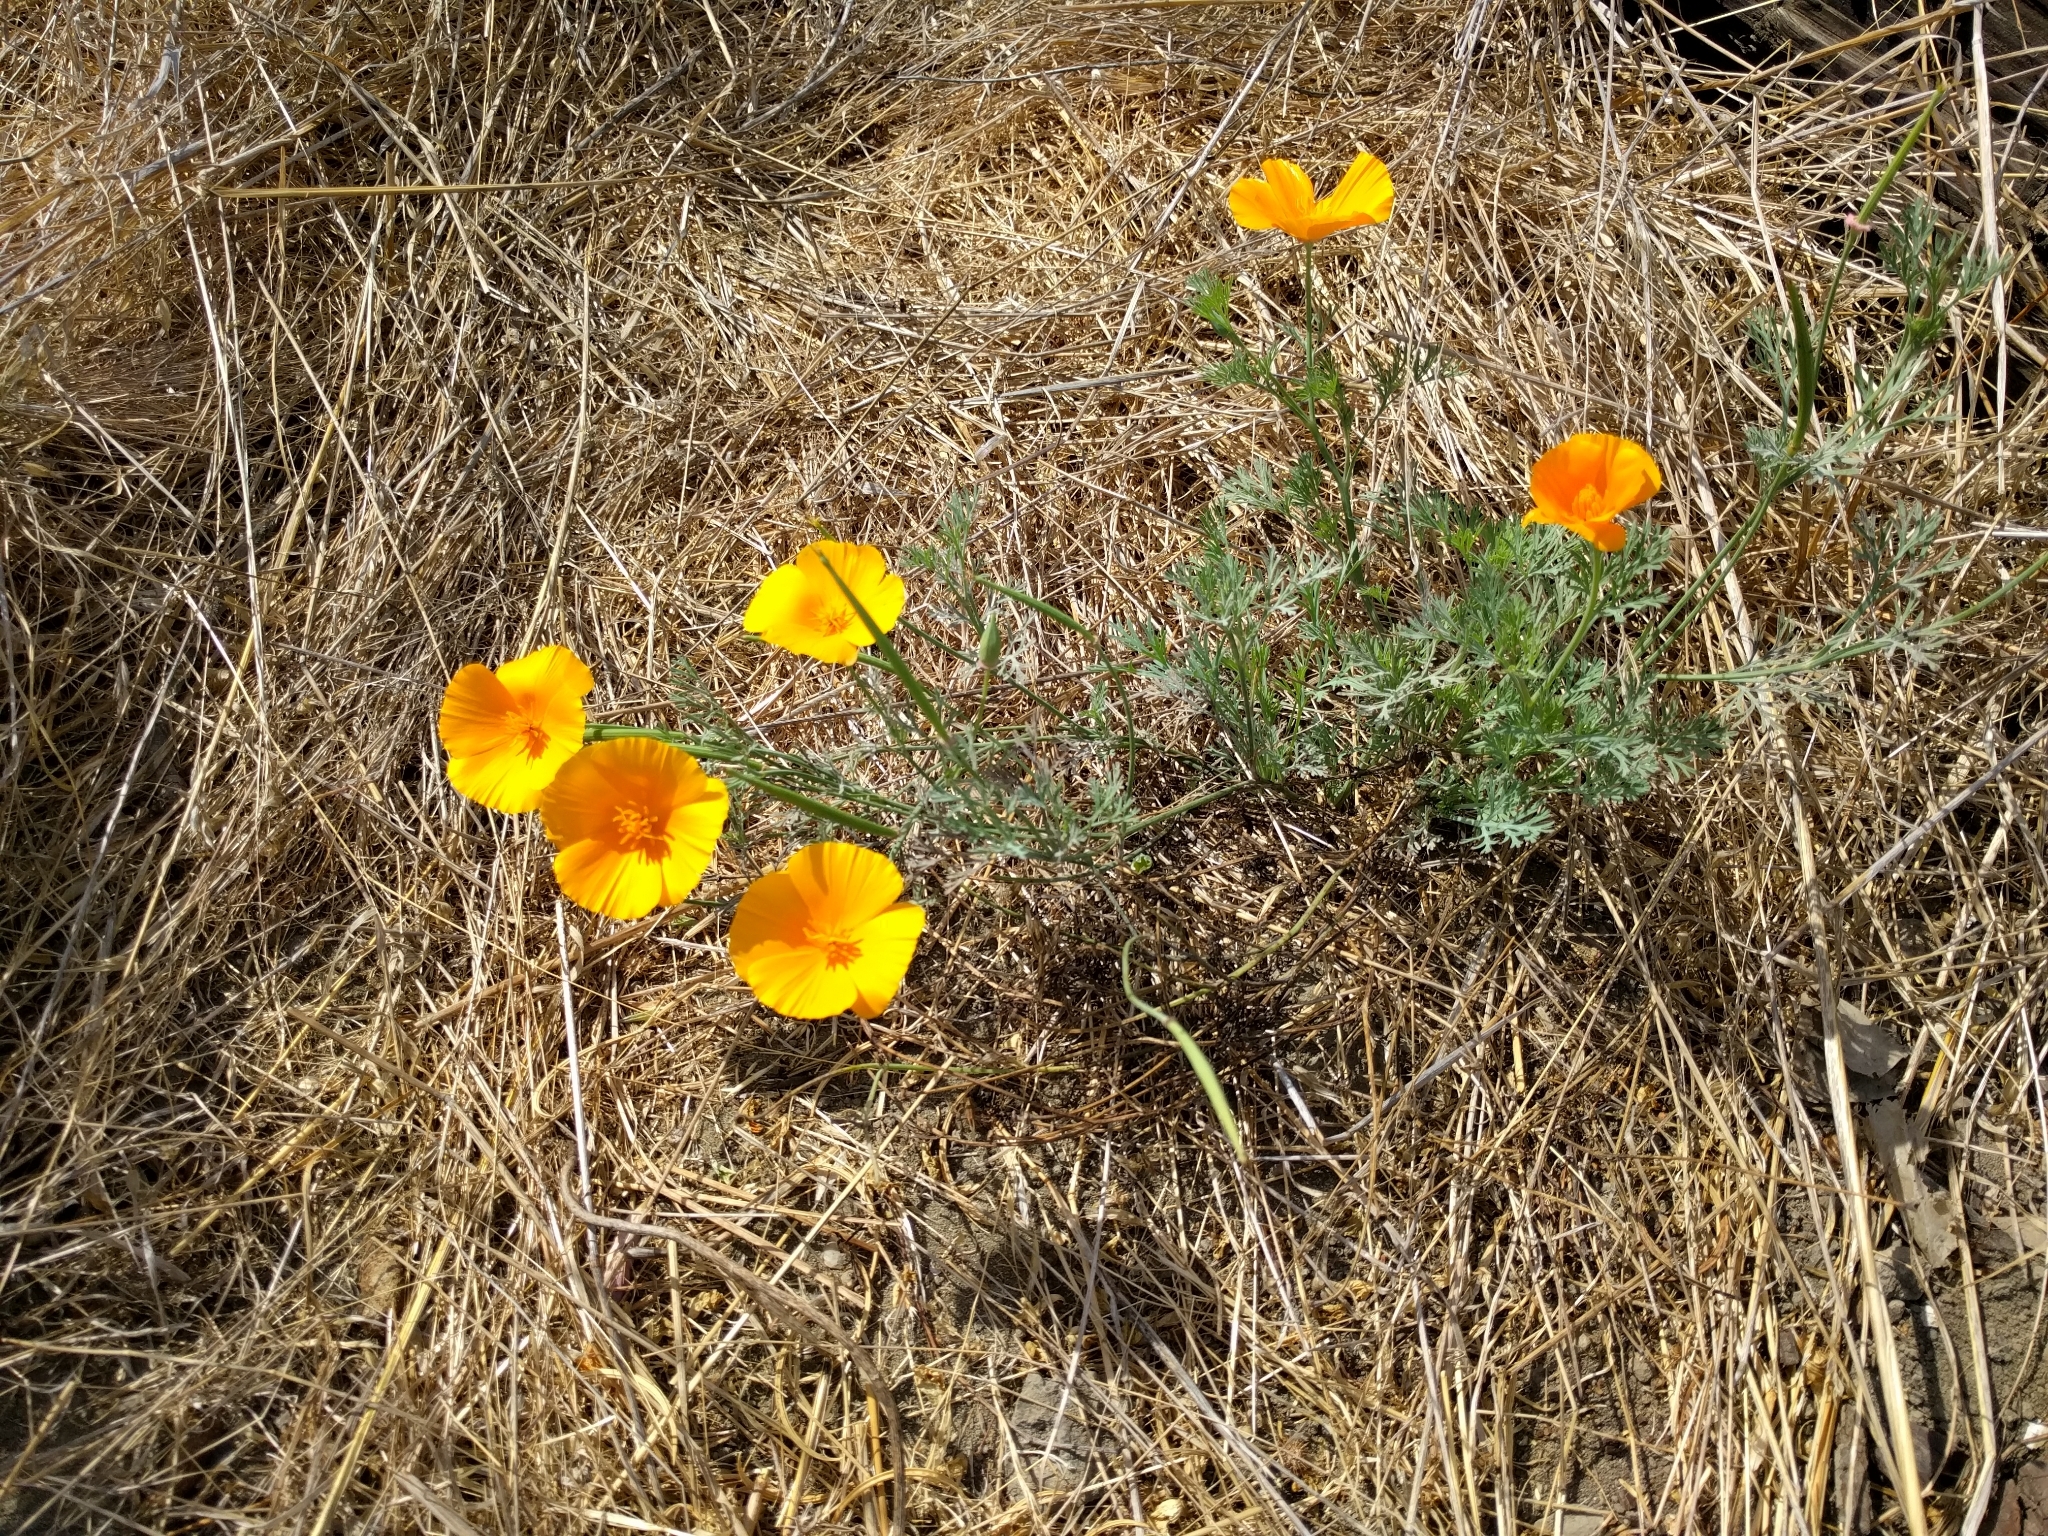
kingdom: Plantae
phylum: Tracheophyta
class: Magnoliopsida
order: Ranunculales
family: Papaveraceae
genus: Eschscholzia
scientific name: Eschscholzia californica
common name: California poppy
